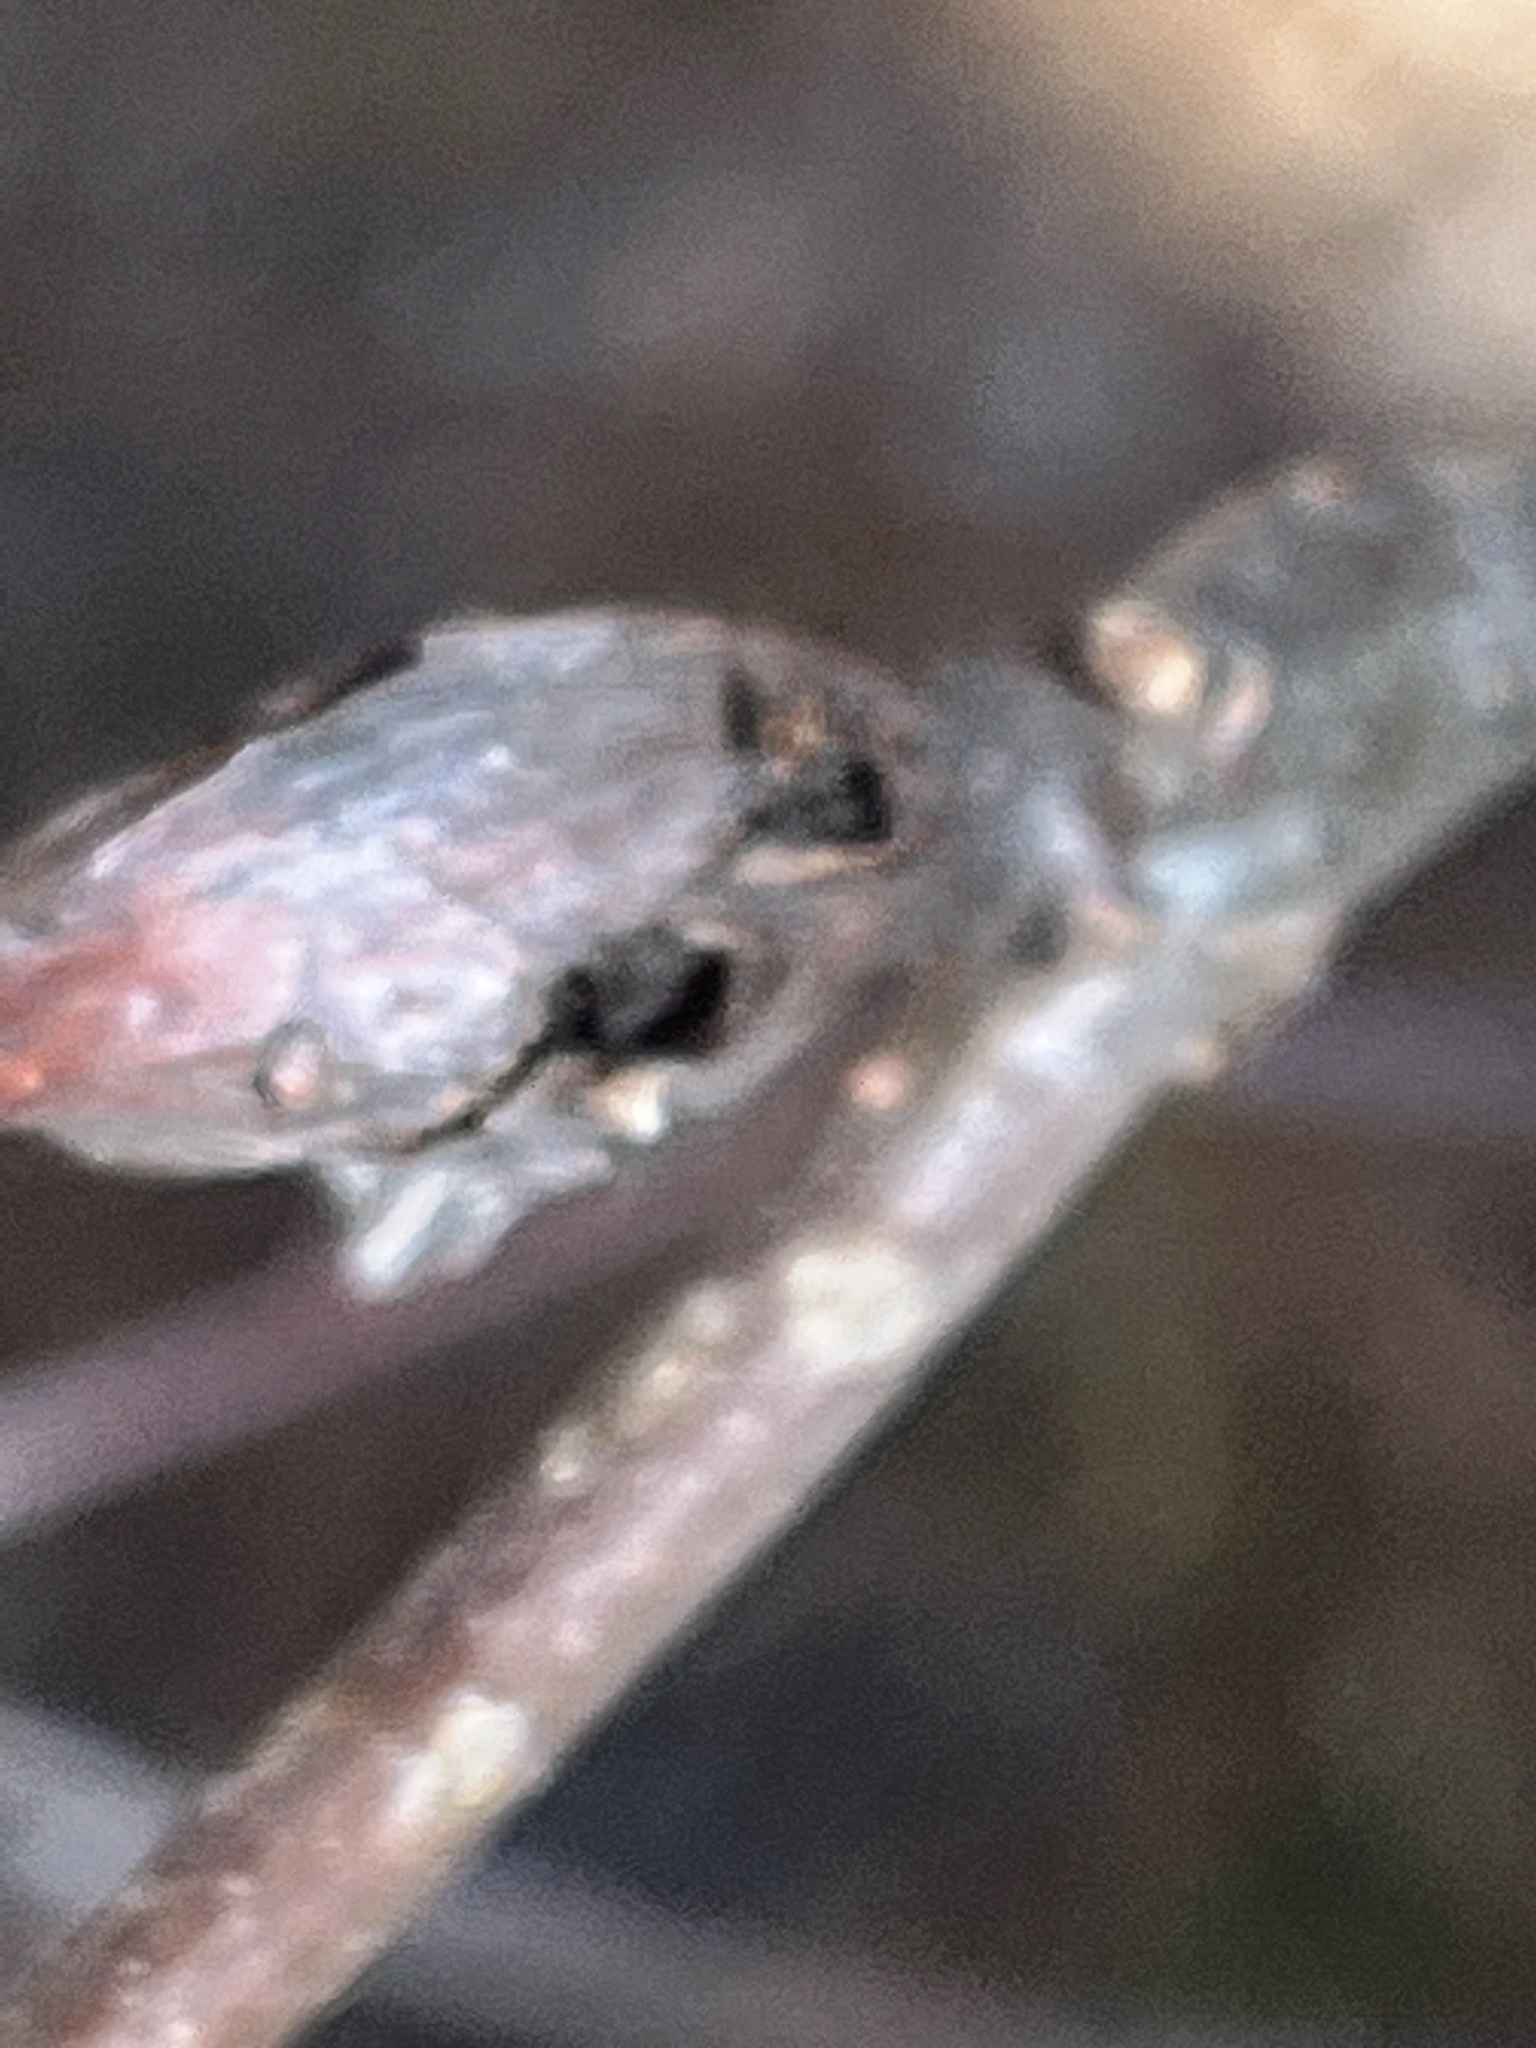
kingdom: Animalia
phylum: Arthropoda
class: Insecta
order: Hymenoptera
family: Cynipidae
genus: Callirhytis
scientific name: Callirhytis
